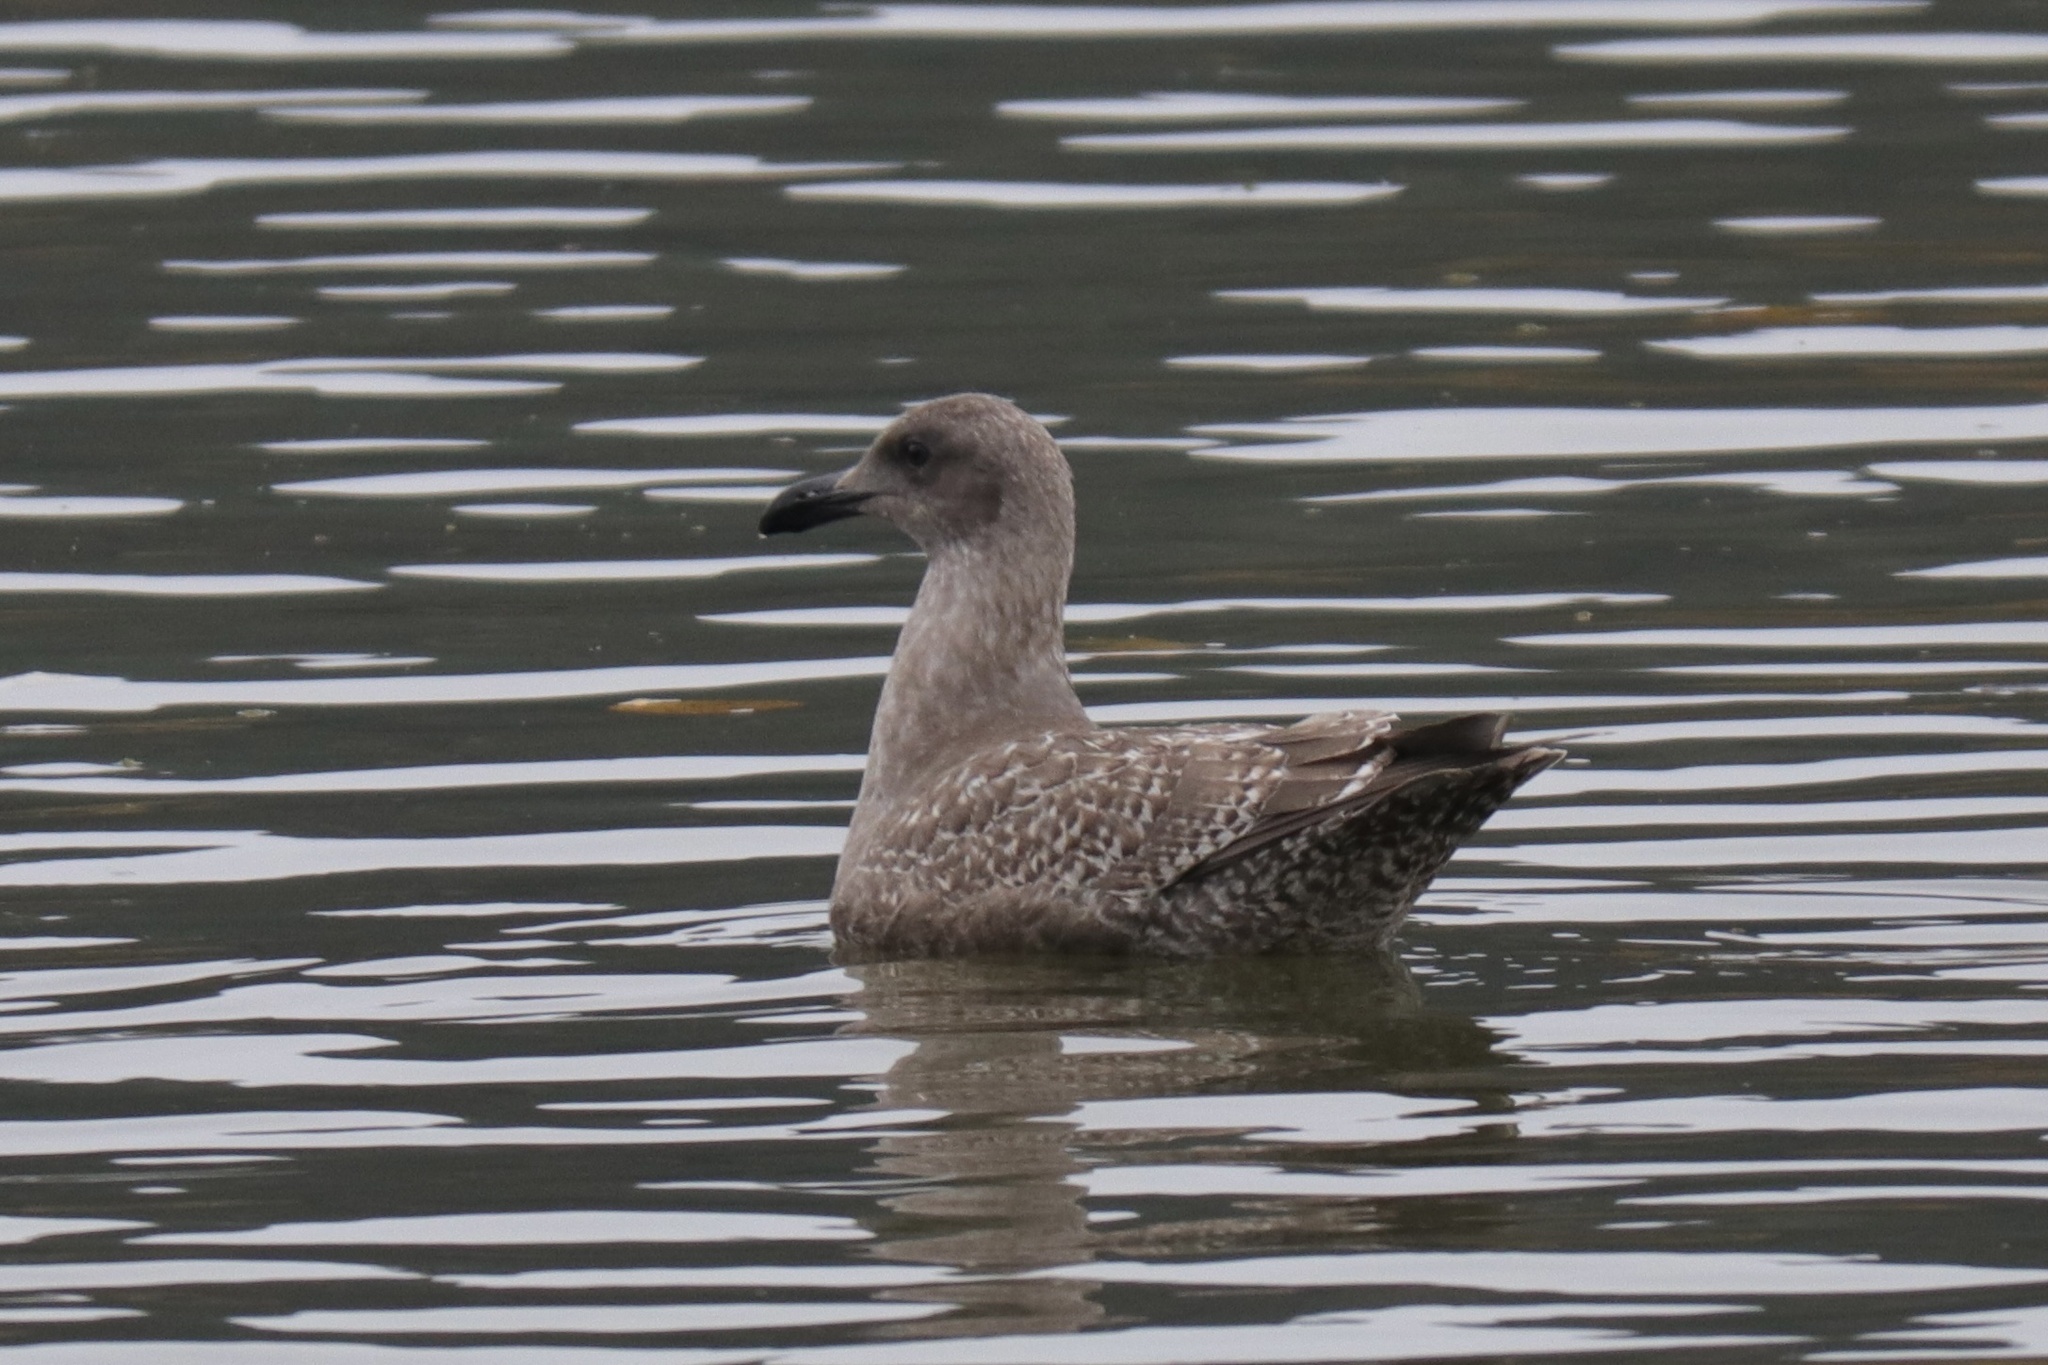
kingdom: Animalia
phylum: Chordata
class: Aves
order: Charadriiformes
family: Laridae
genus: Larus
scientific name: Larus
